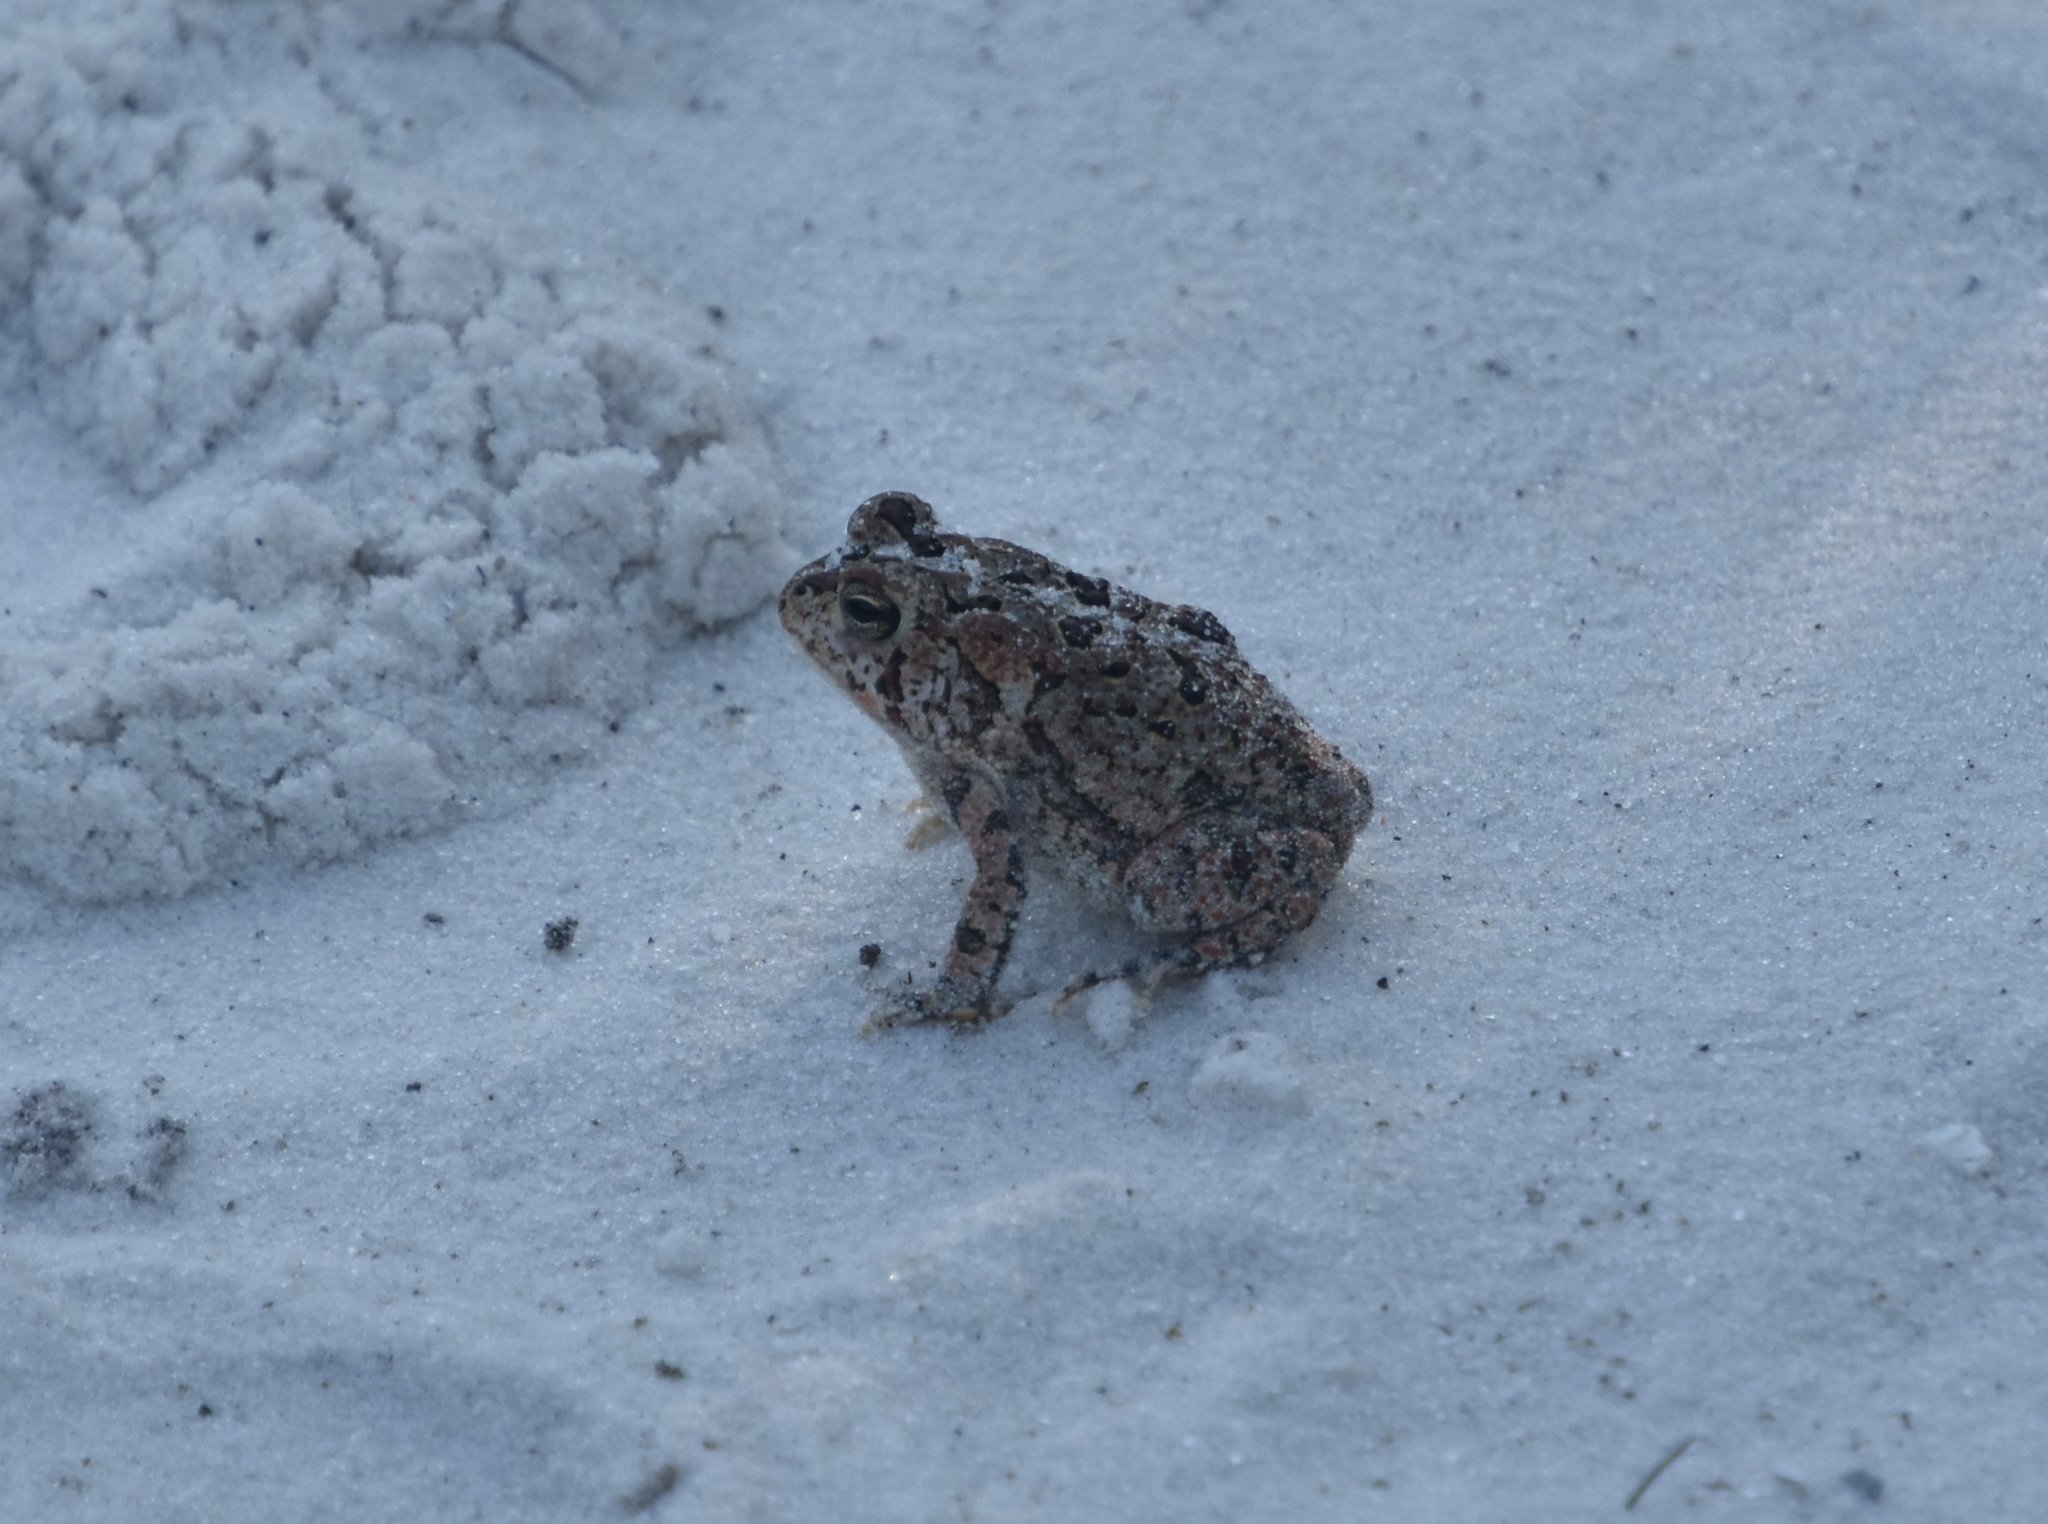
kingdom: Animalia
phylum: Chordata
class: Amphibia
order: Anura
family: Bufonidae
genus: Anaxyrus
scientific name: Anaxyrus terrestris
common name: Southern toad
